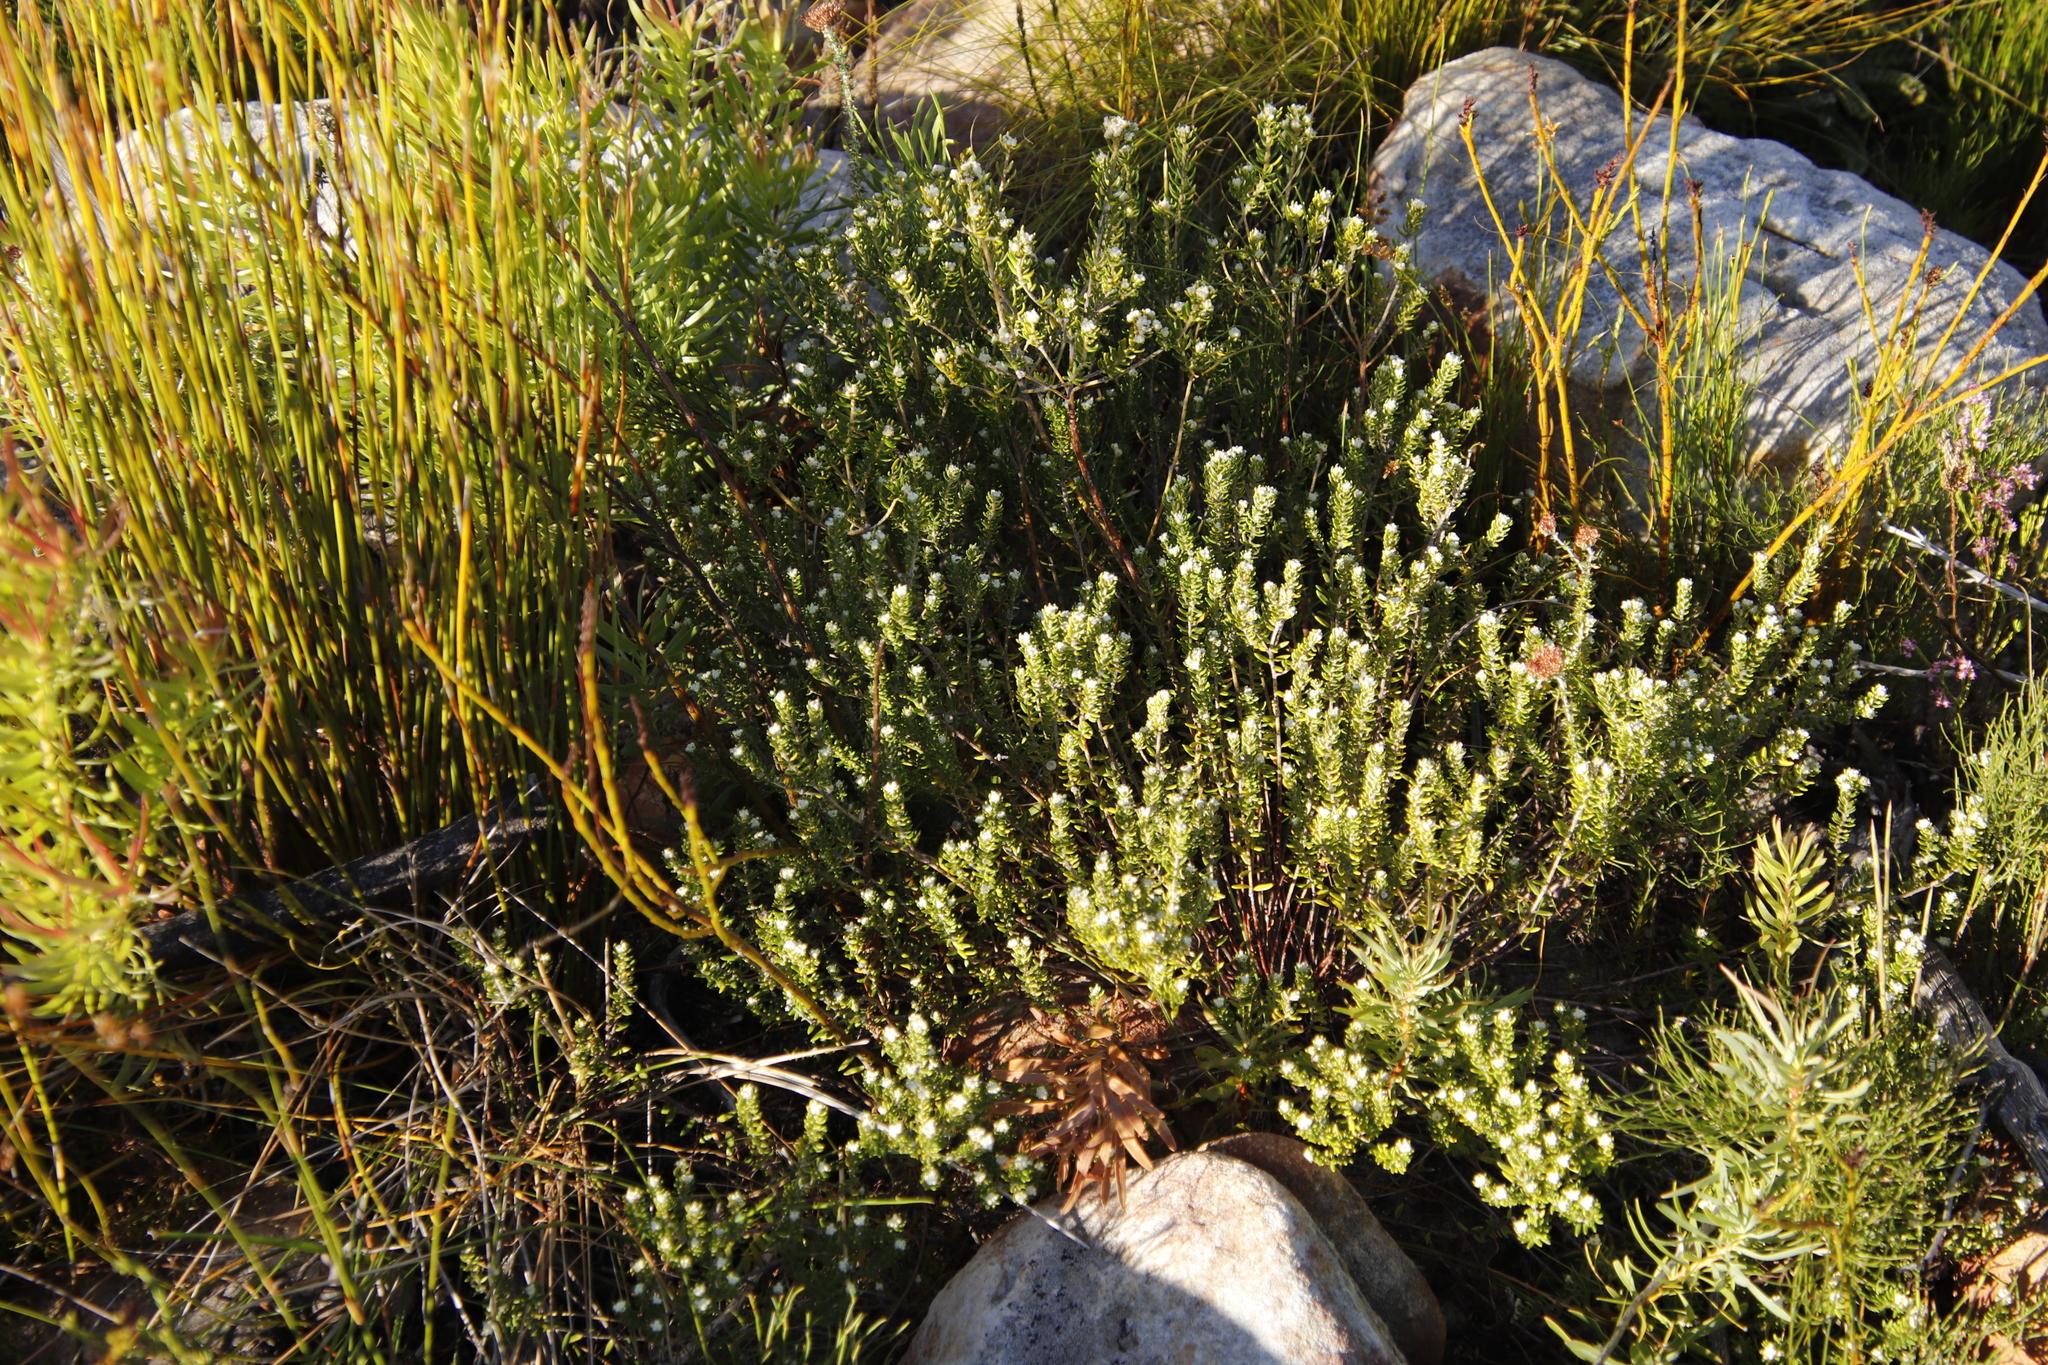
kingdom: Plantae
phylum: Tracheophyta
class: Magnoliopsida
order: Rosales
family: Rhamnaceae
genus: Phylica
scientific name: Phylica imberbis
